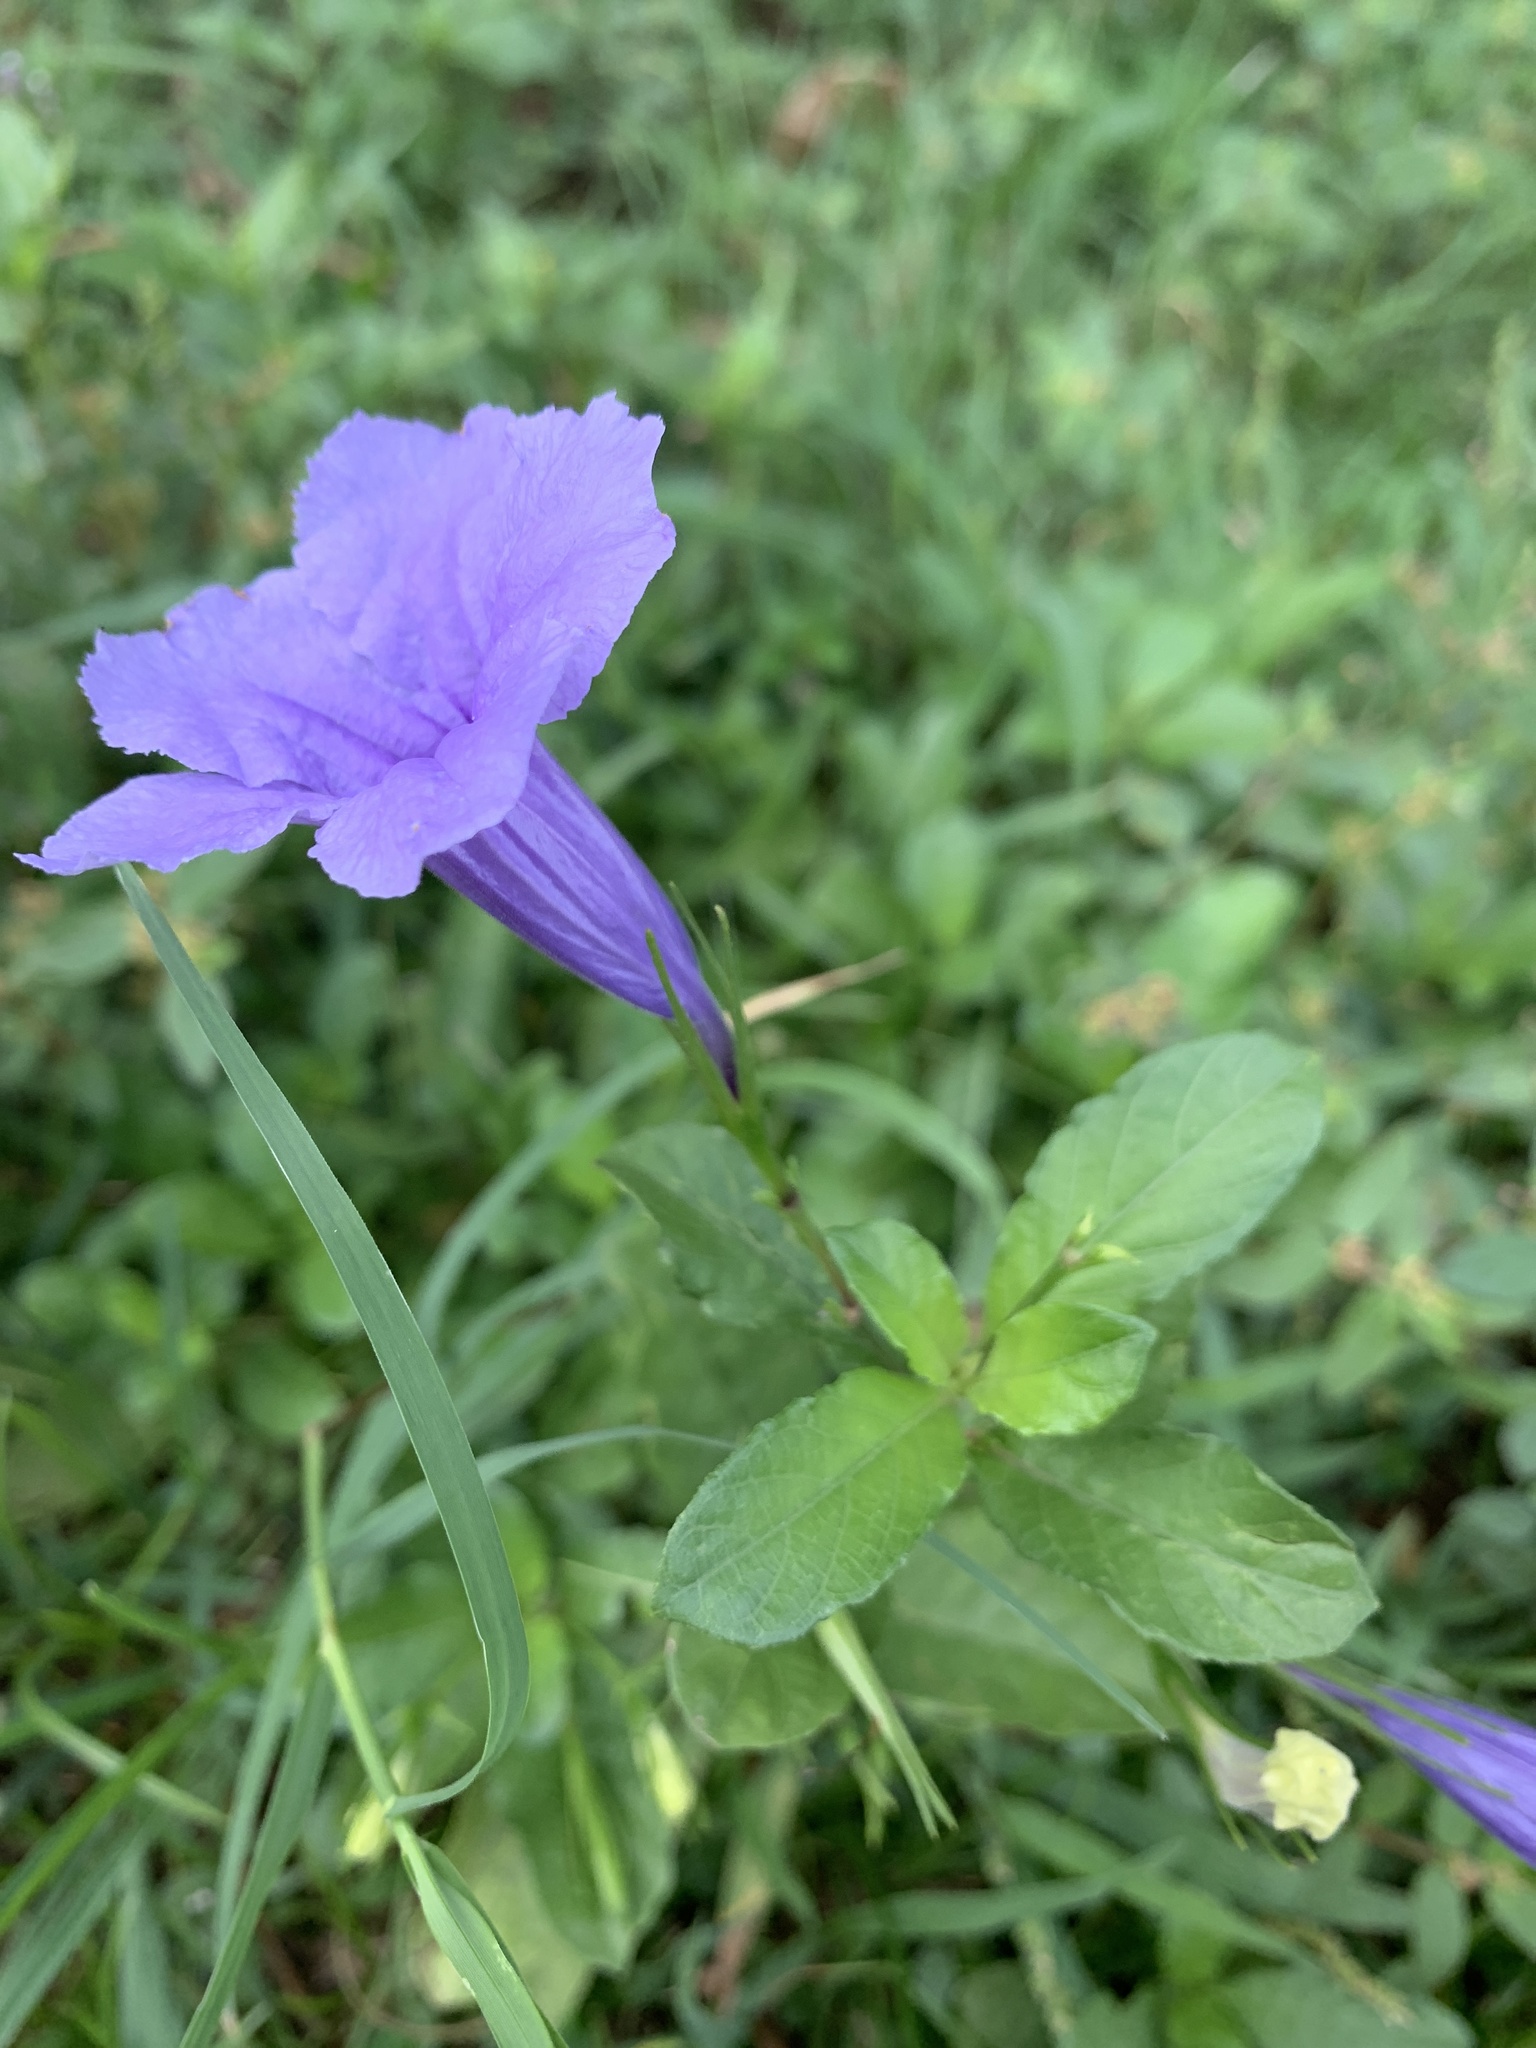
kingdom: Plantae
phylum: Tracheophyta
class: Magnoliopsida
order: Lamiales
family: Acanthaceae
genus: Ruellia
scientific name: Ruellia tuberosa
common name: Devil's bit
